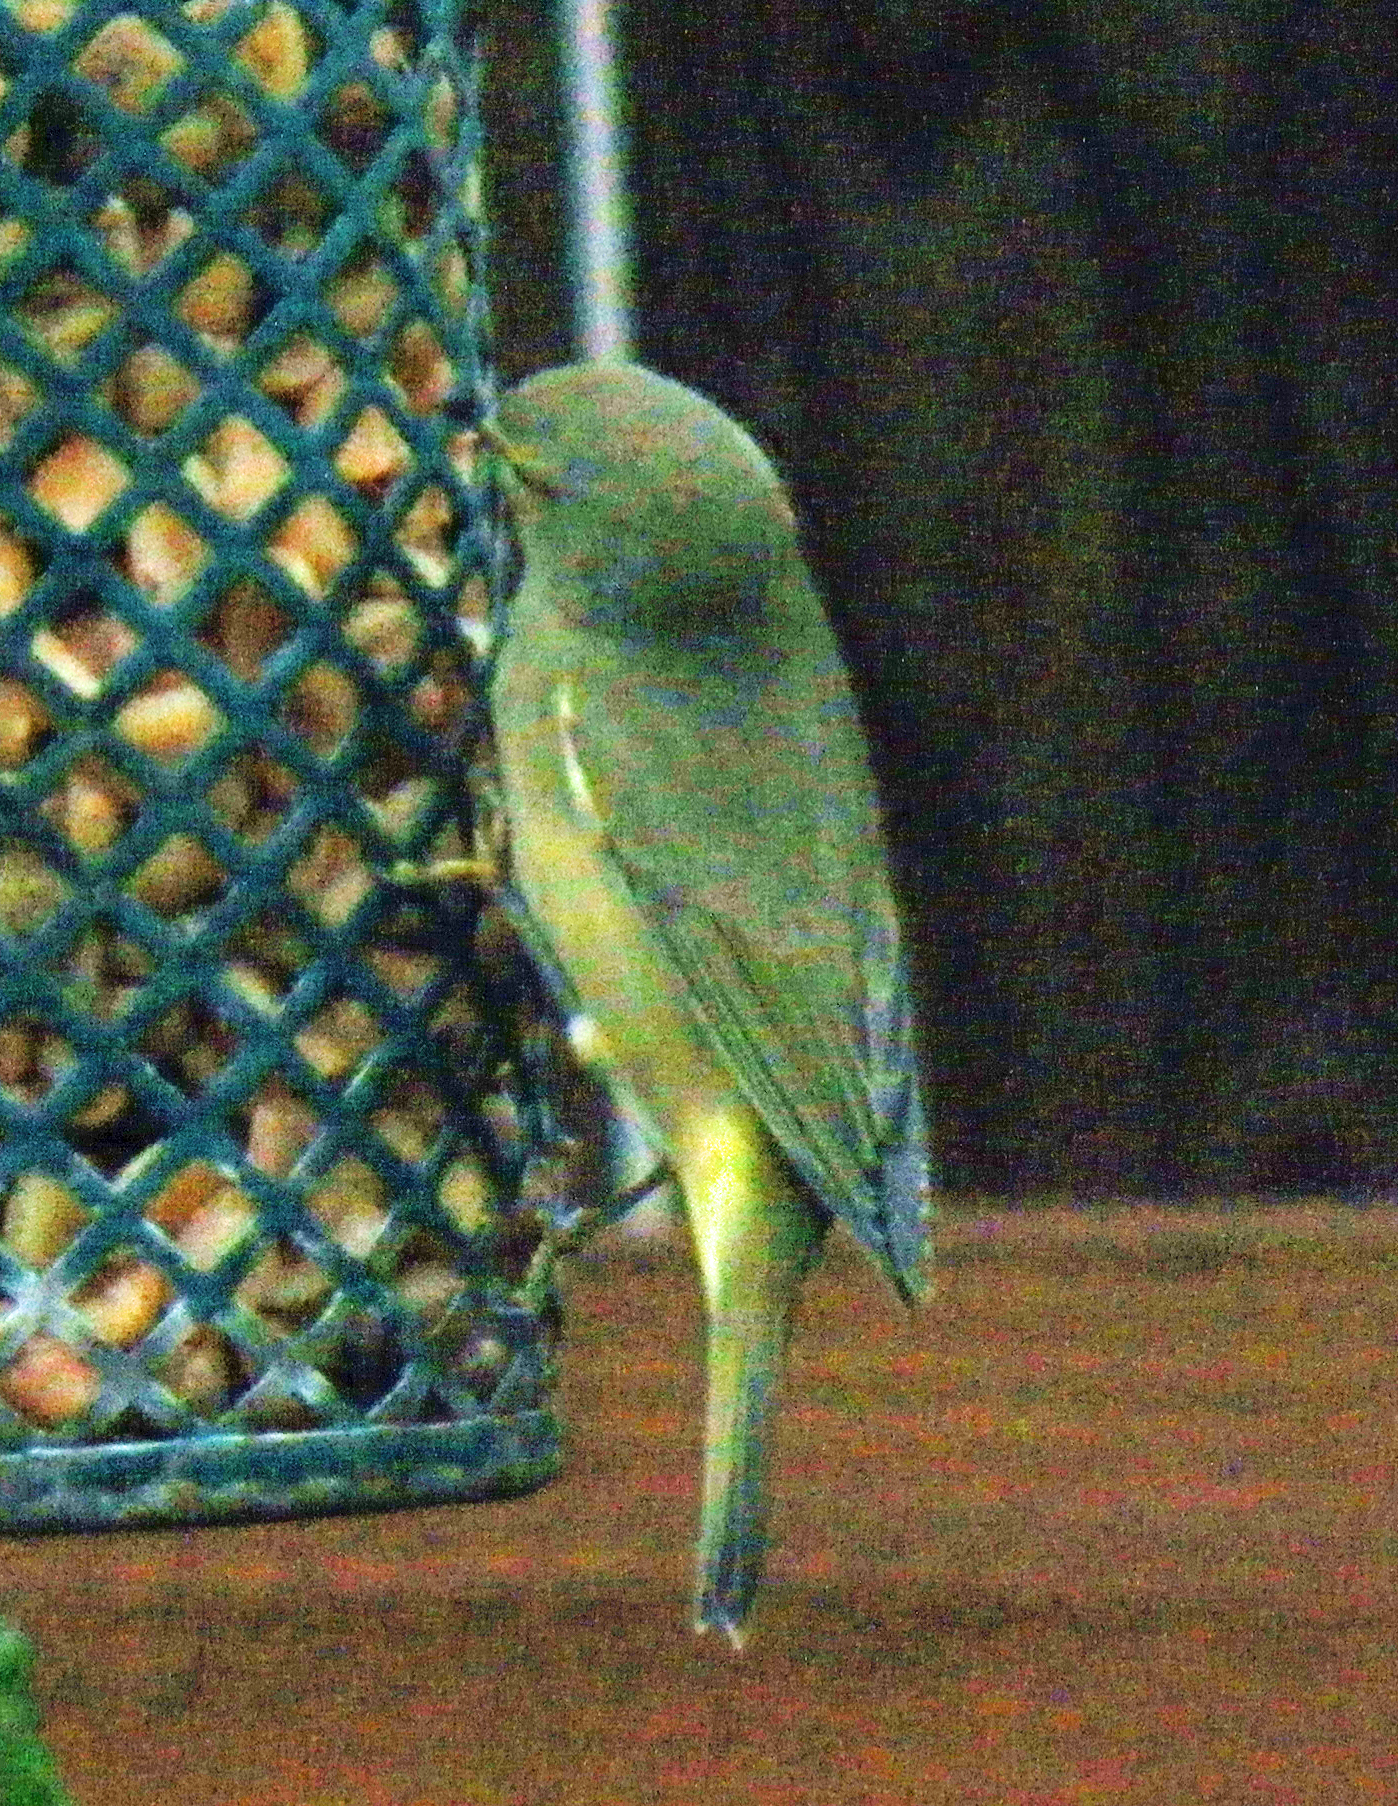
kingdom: Animalia
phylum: Chordata
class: Aves
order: Passeriformes
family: Parulidae
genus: Leiothlypis
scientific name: Leiothlypis celata
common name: Orange-crowned warbler
